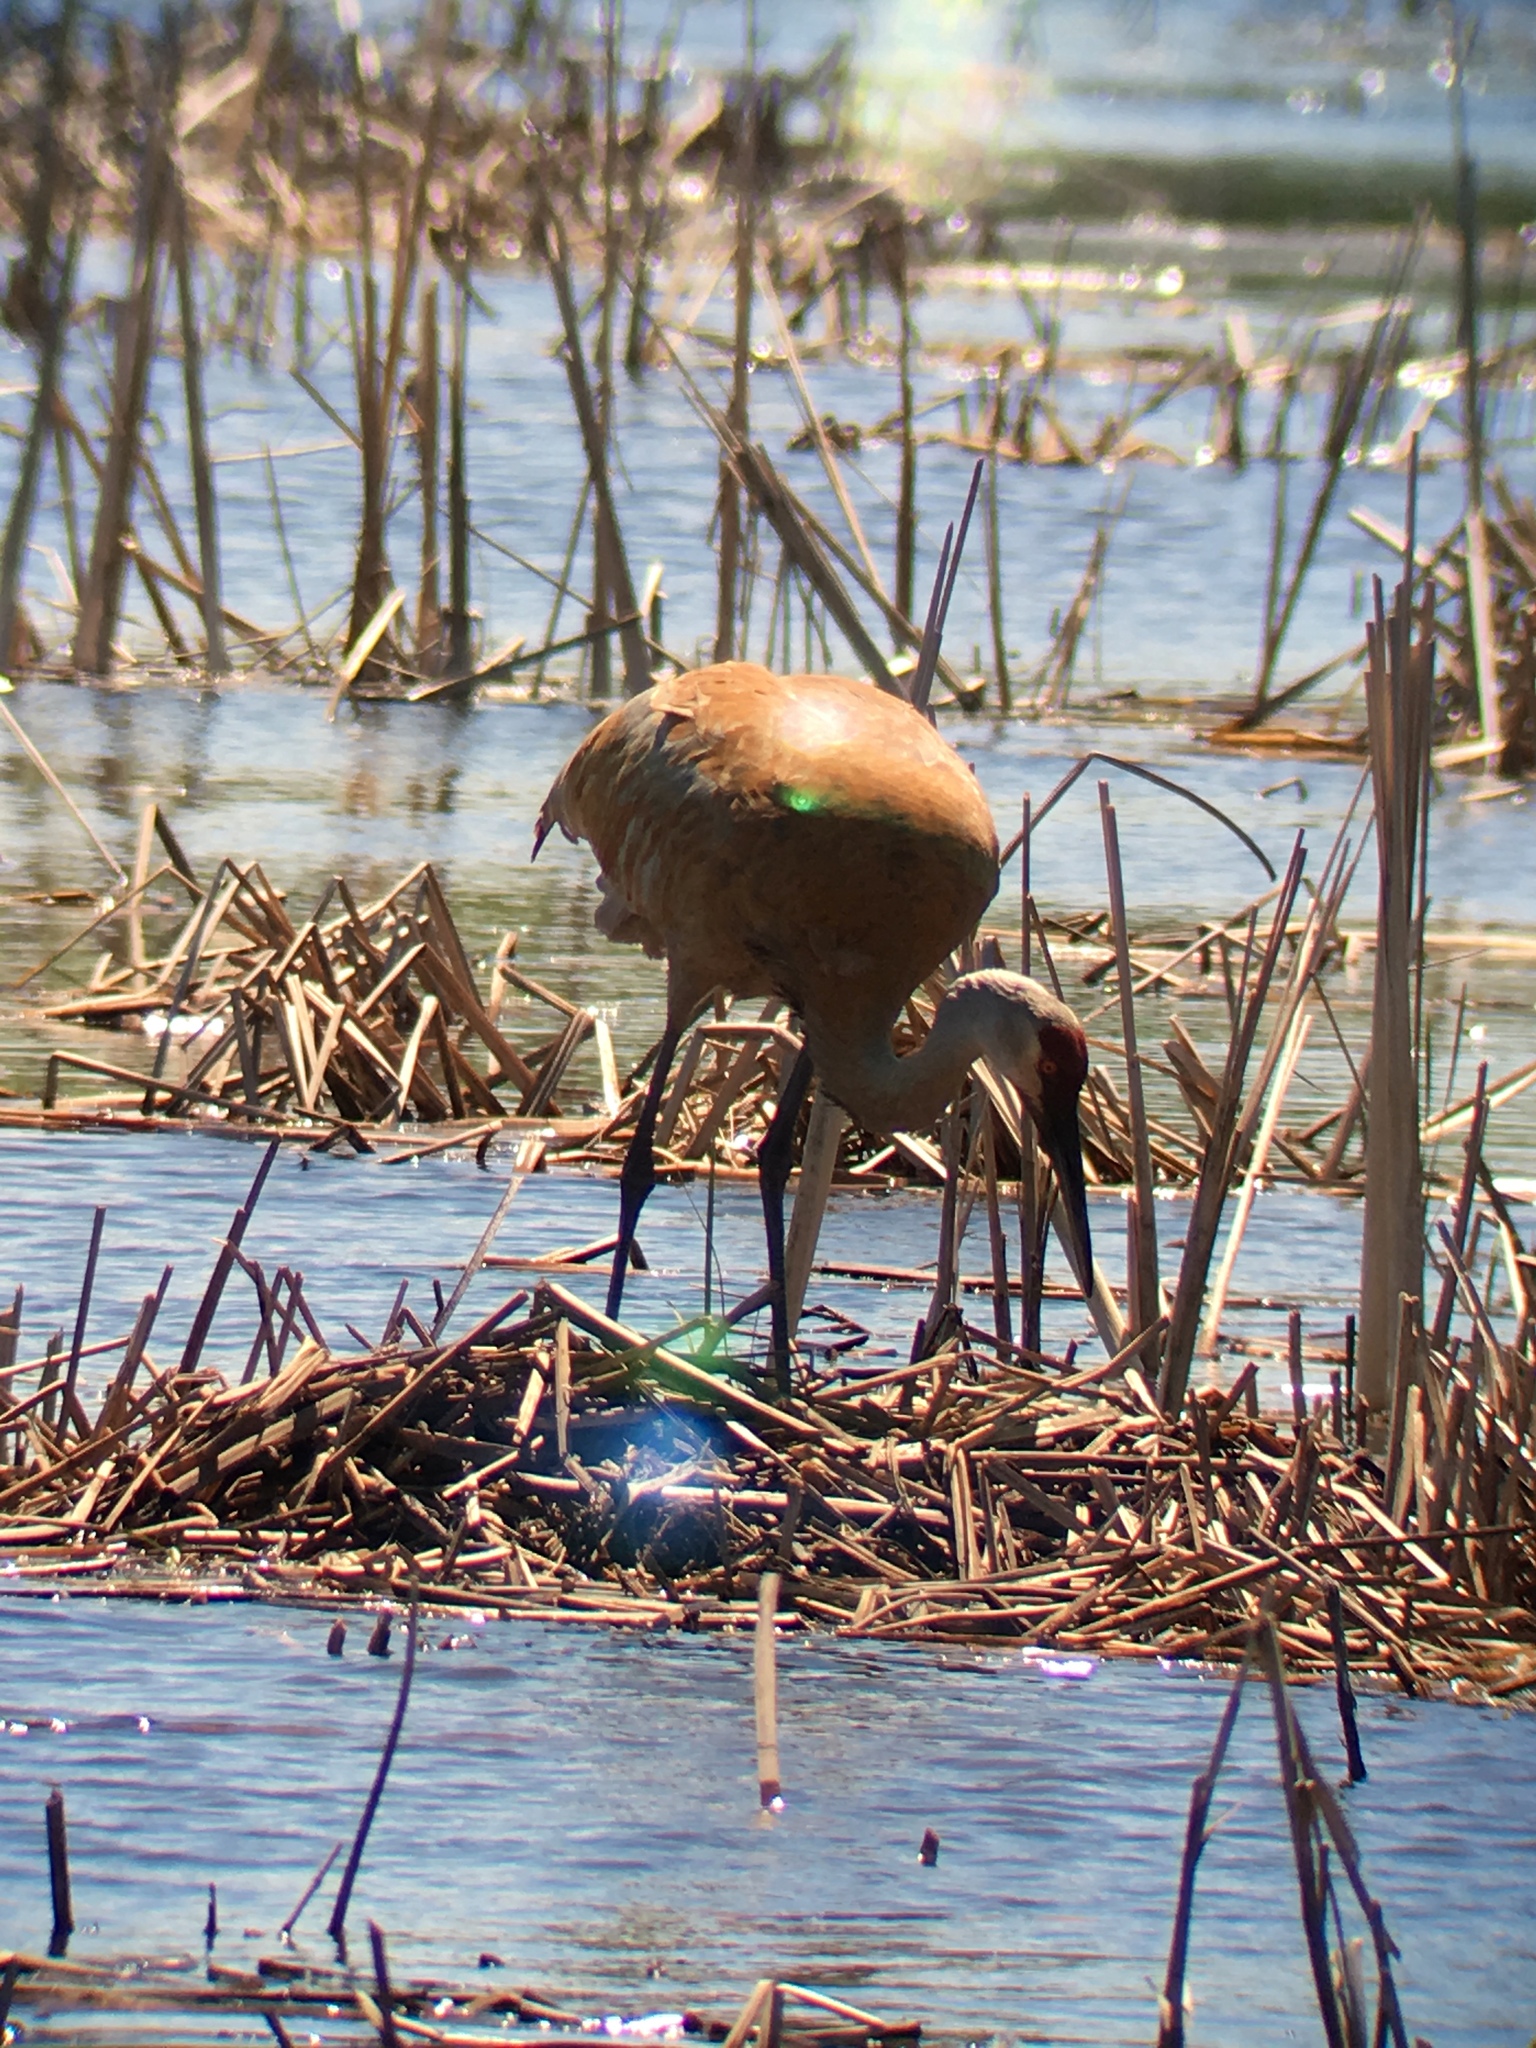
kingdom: Animalia
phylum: Chordata
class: Aves
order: Gruiformes
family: Gruidae
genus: Grus
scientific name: Grus canadensis
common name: Sandhill crane
